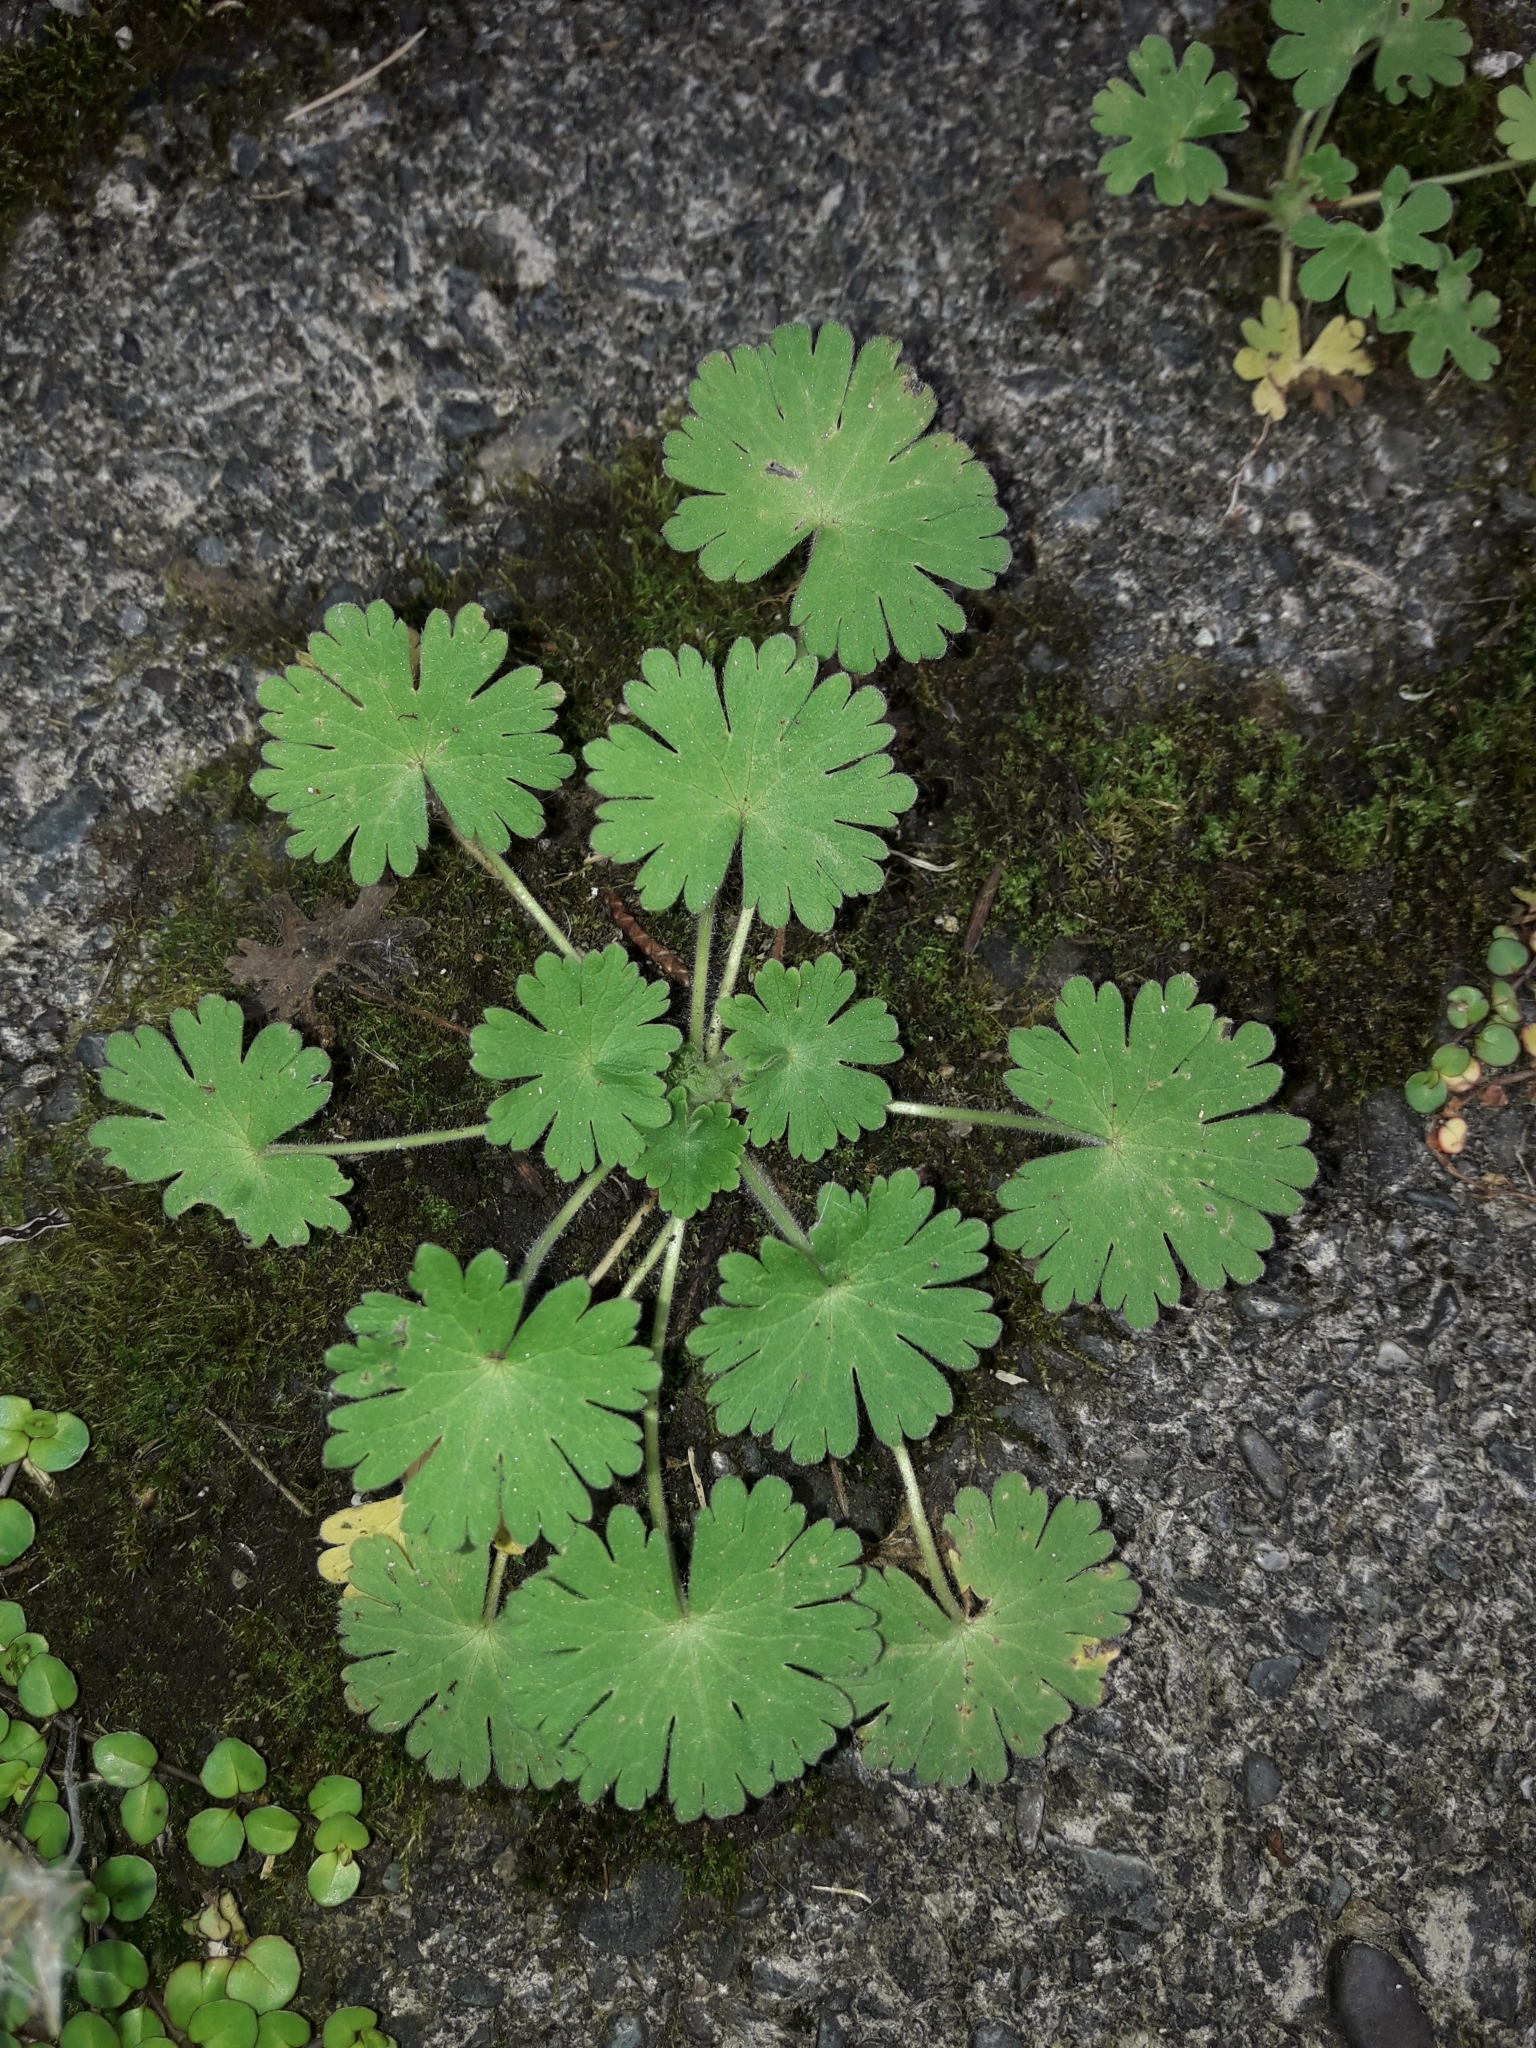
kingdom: Plantae
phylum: Tracheophyta
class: Magnoliopsida
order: Geraniales
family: Geraniaceae
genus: Geranium
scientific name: Geranium molle
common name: Dove's-foot crane's-bill
